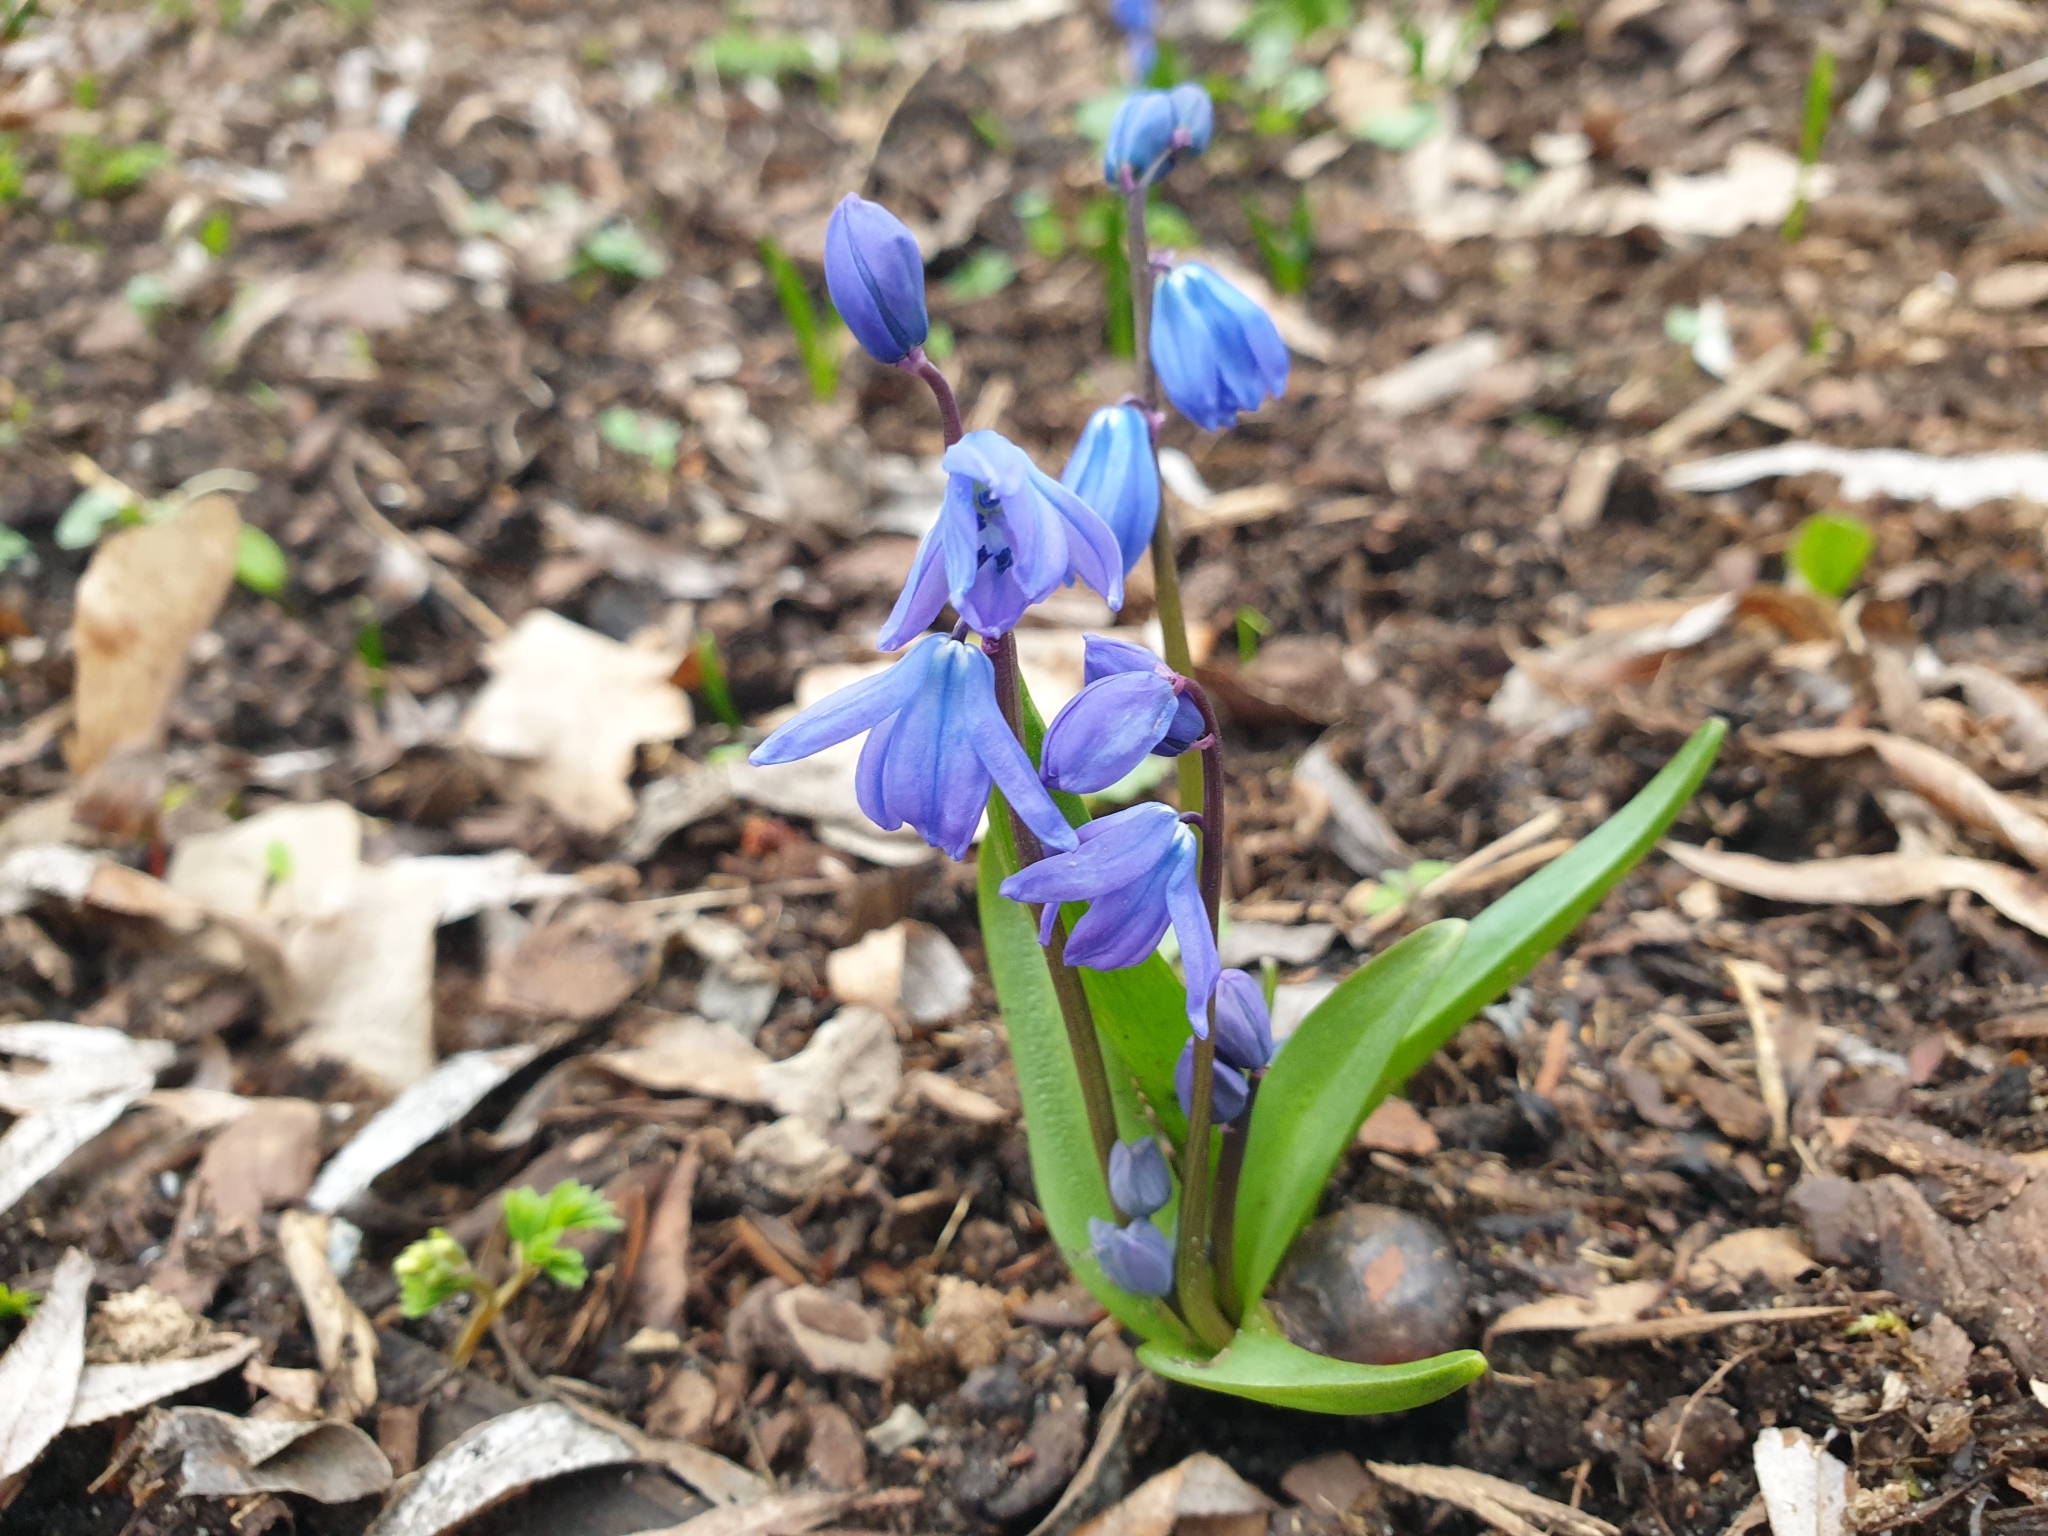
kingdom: Plantae
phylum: Tracheophyta
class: Liliopsida
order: Asparagales
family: Asparagaceae
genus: Scilla
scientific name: Scilla siberica
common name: Siberian squill
